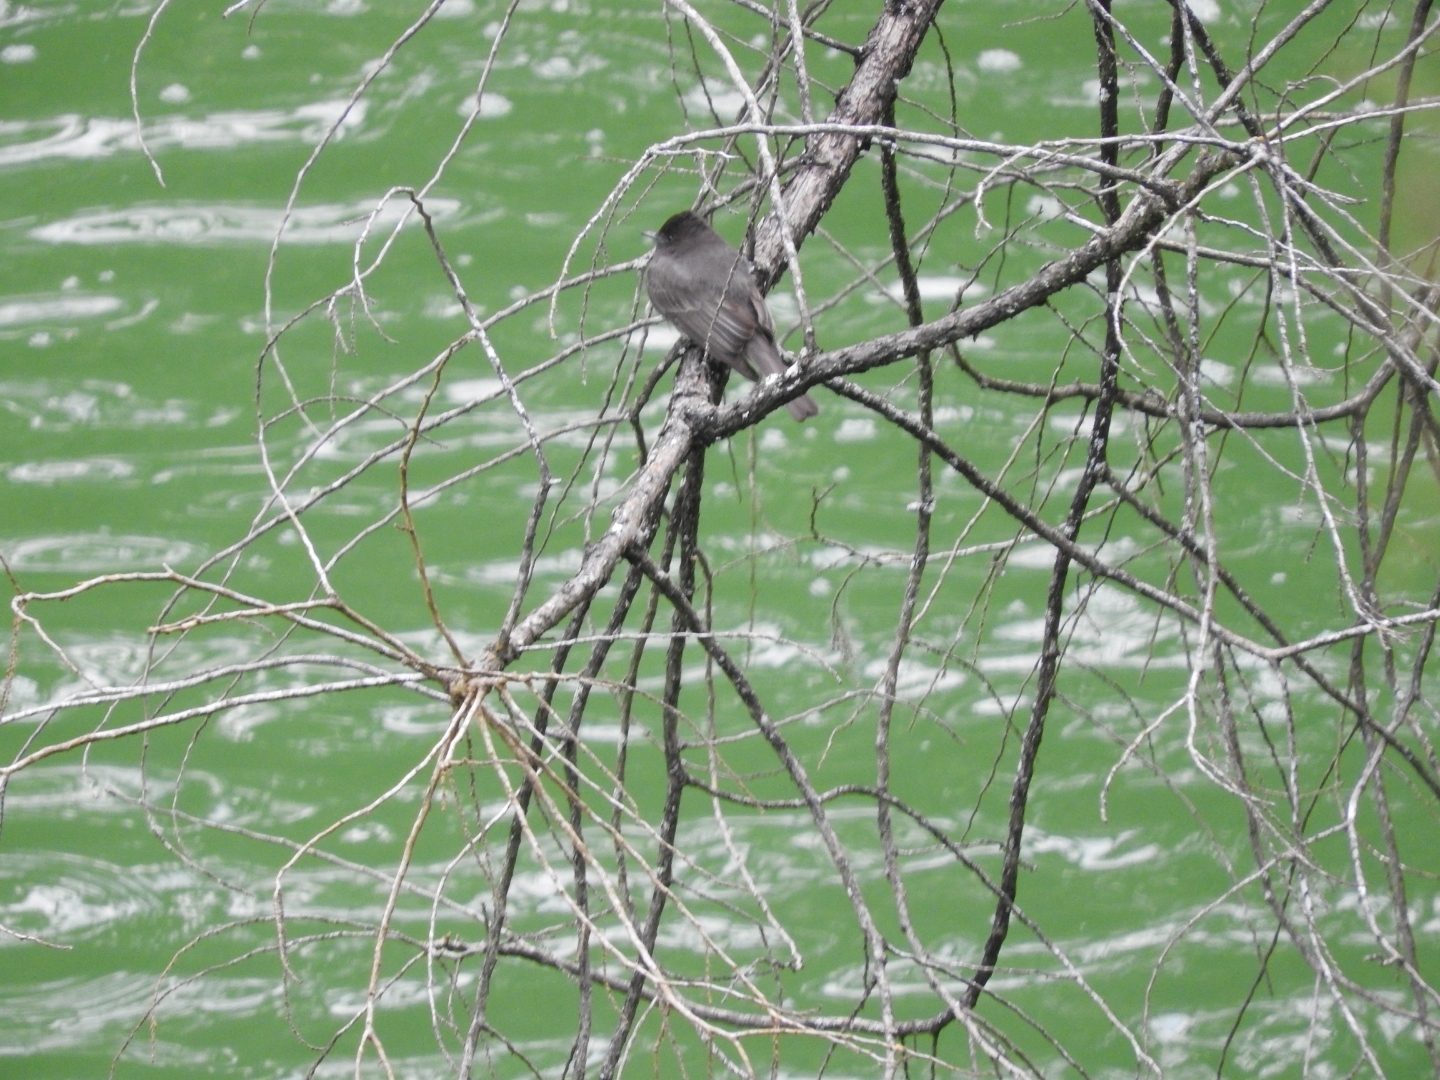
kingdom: Animalia
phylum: Chordata
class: Aves
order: Passeriformes
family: Tyrannidae
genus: Sayornis
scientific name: Sayornis nigricans
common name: Black phoebe
